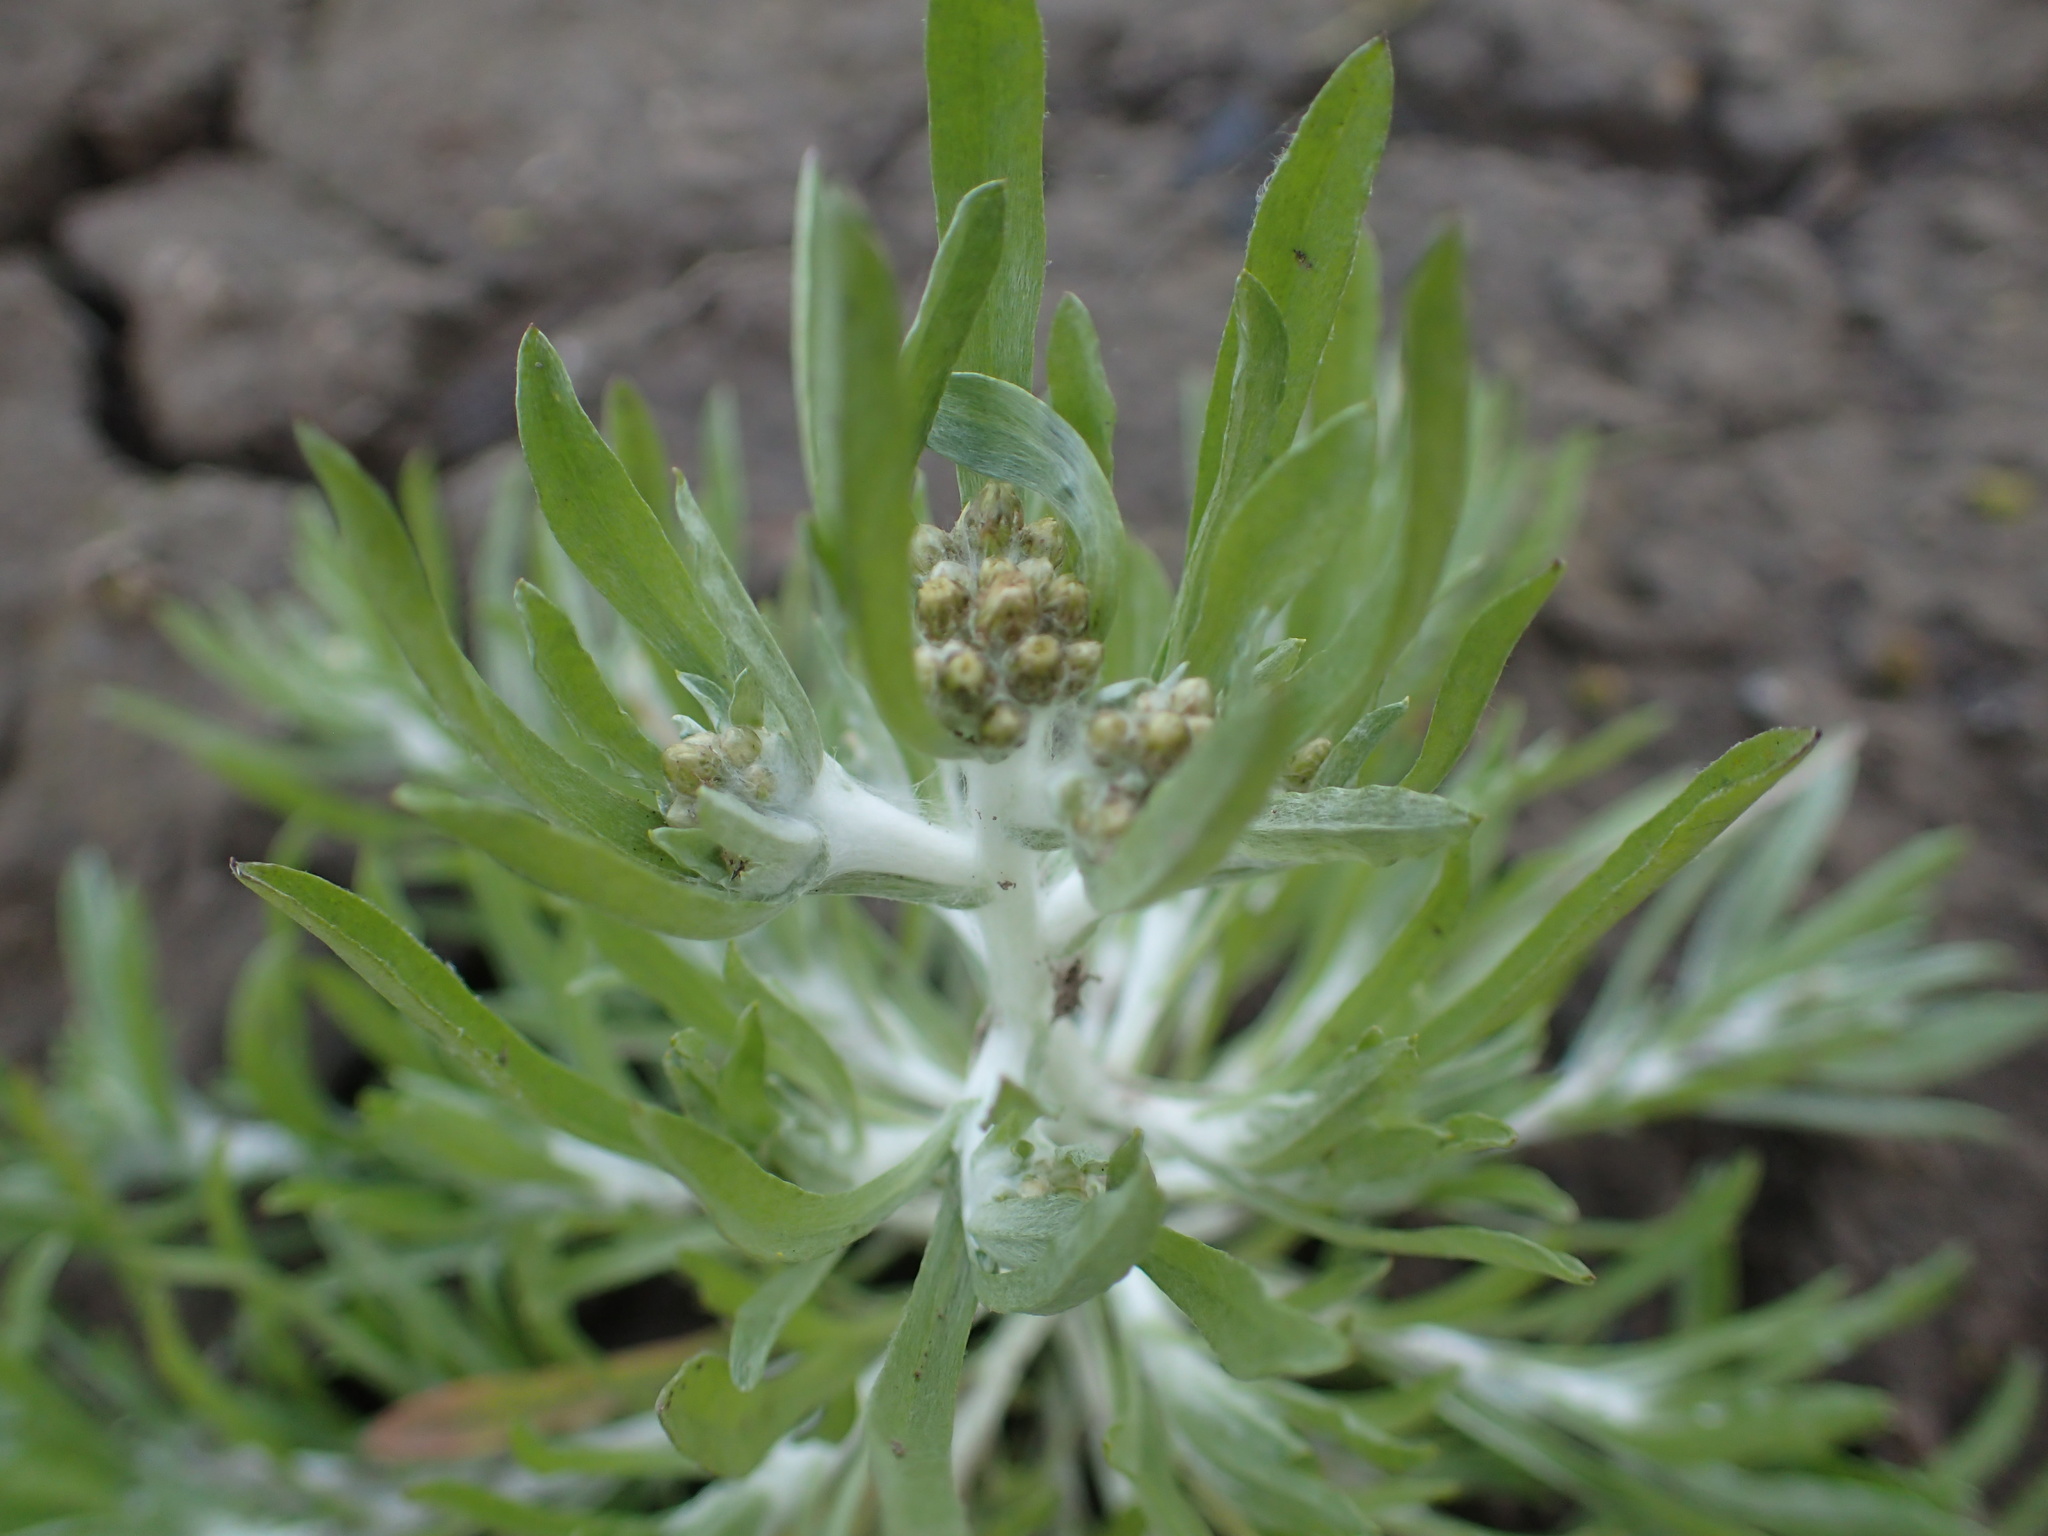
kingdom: Plantae
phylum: Tracheophyta
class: Magnoliopsida
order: Asterales
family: Asteraceae
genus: Gnaphalium
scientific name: Gnaphalium uliginosum
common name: Marsh cudweed
